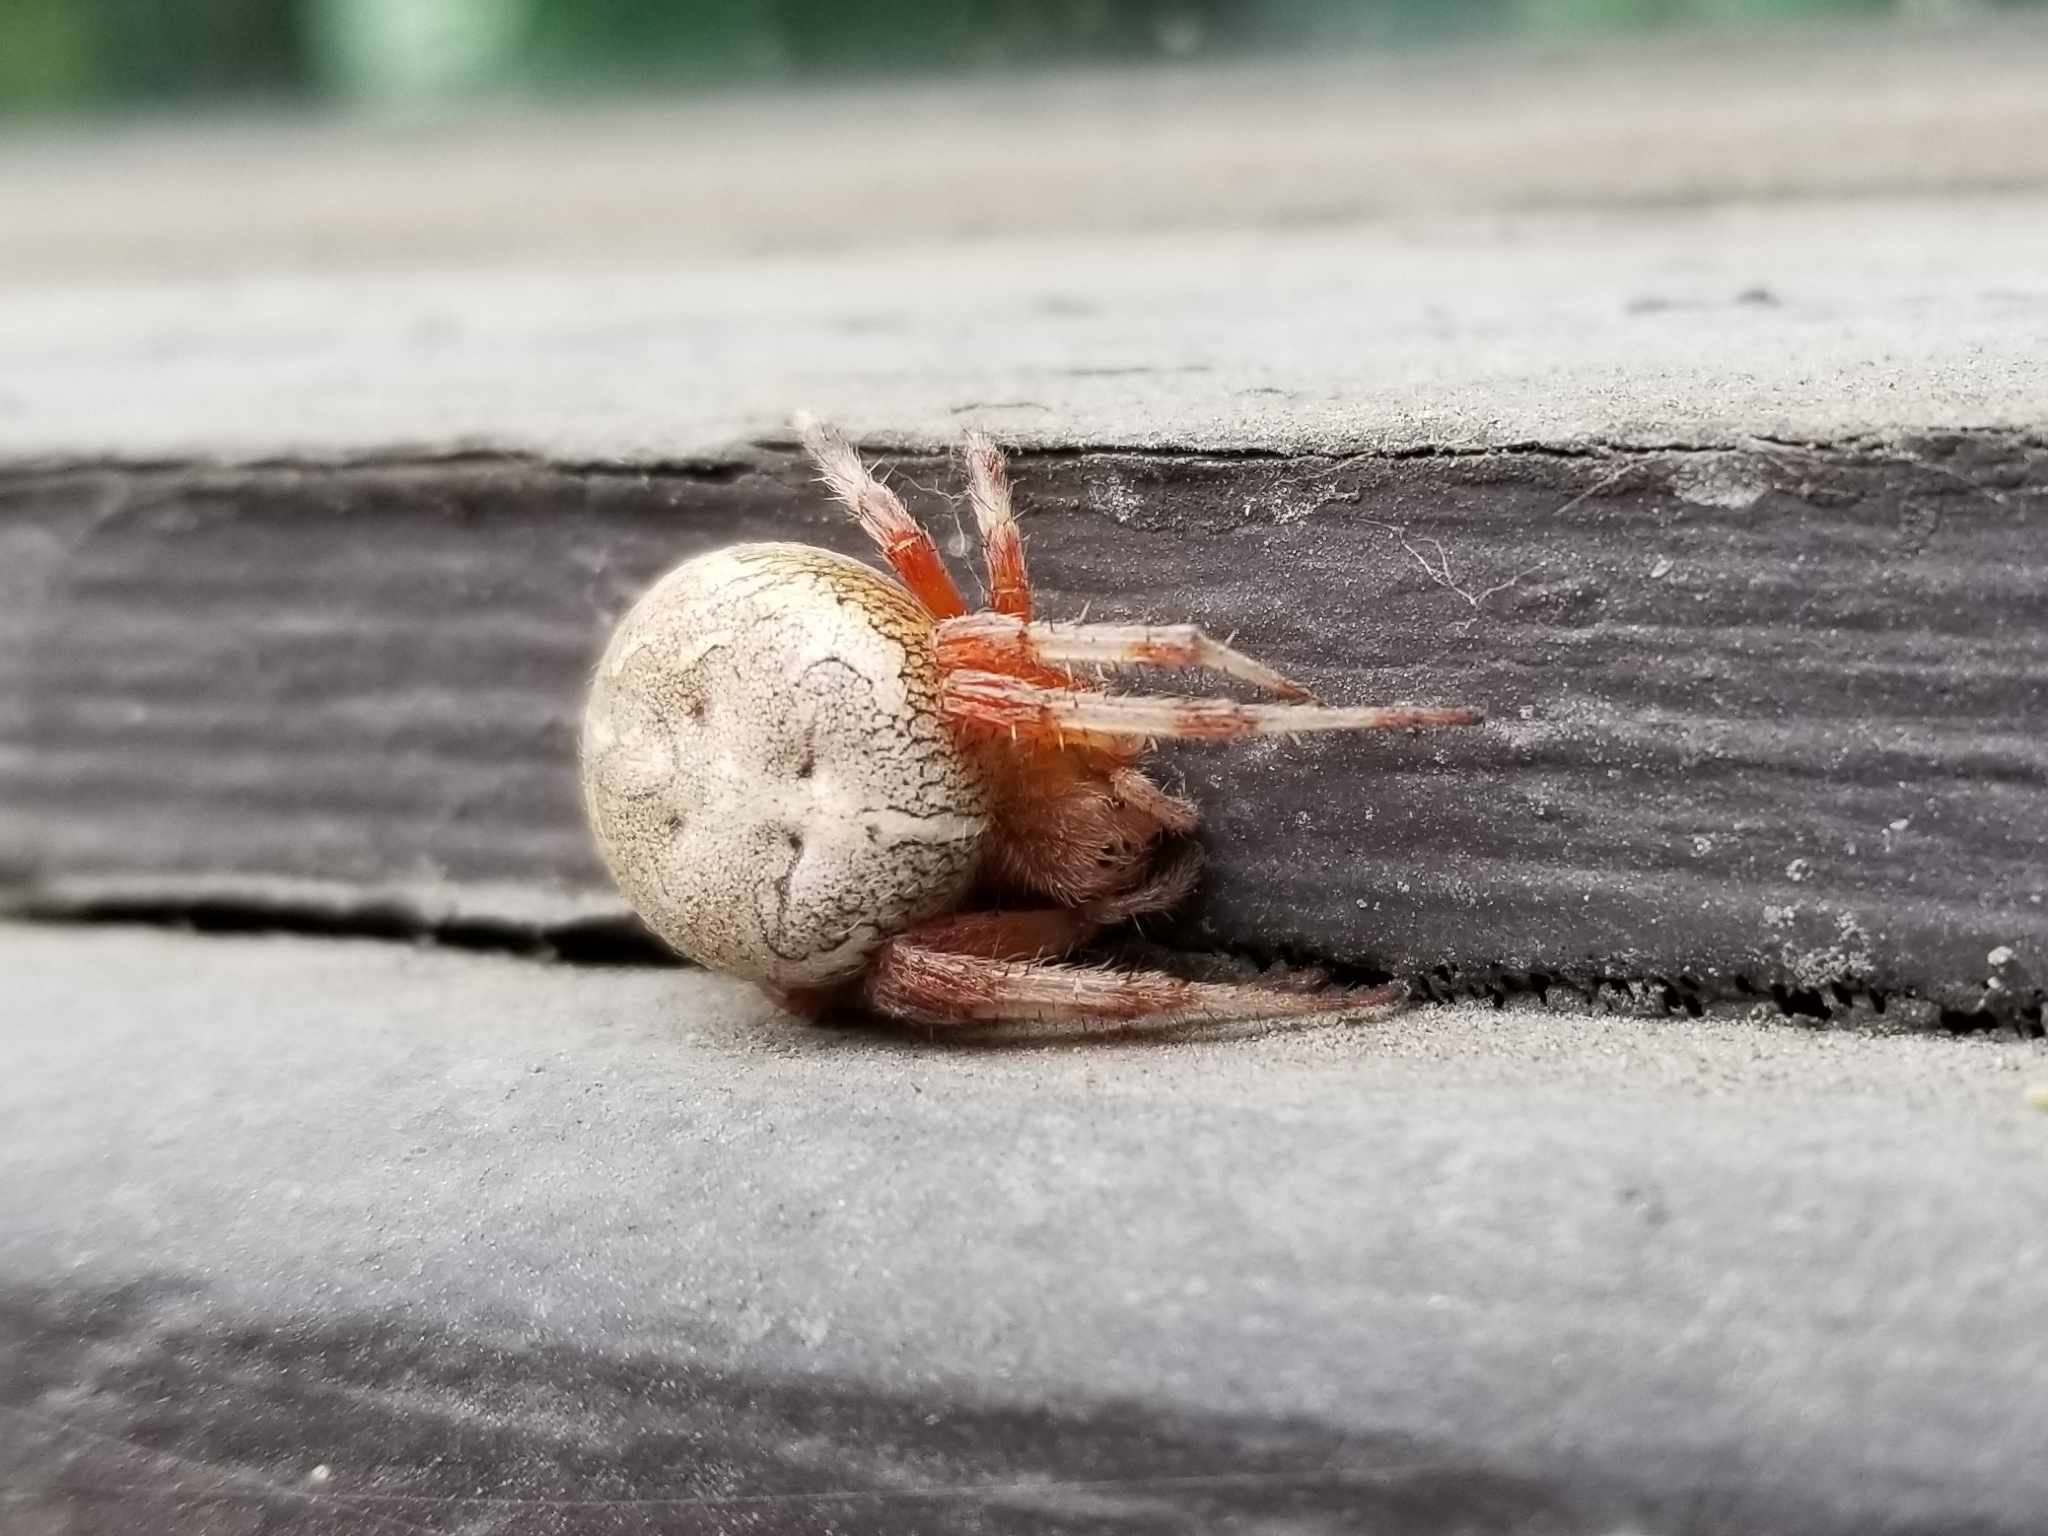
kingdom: Animalia
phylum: Arthropoda
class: Arachnida
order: Araneae
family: Araneidae
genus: Araneus
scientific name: Araneus marmoreus
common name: Marbled orbweaver
